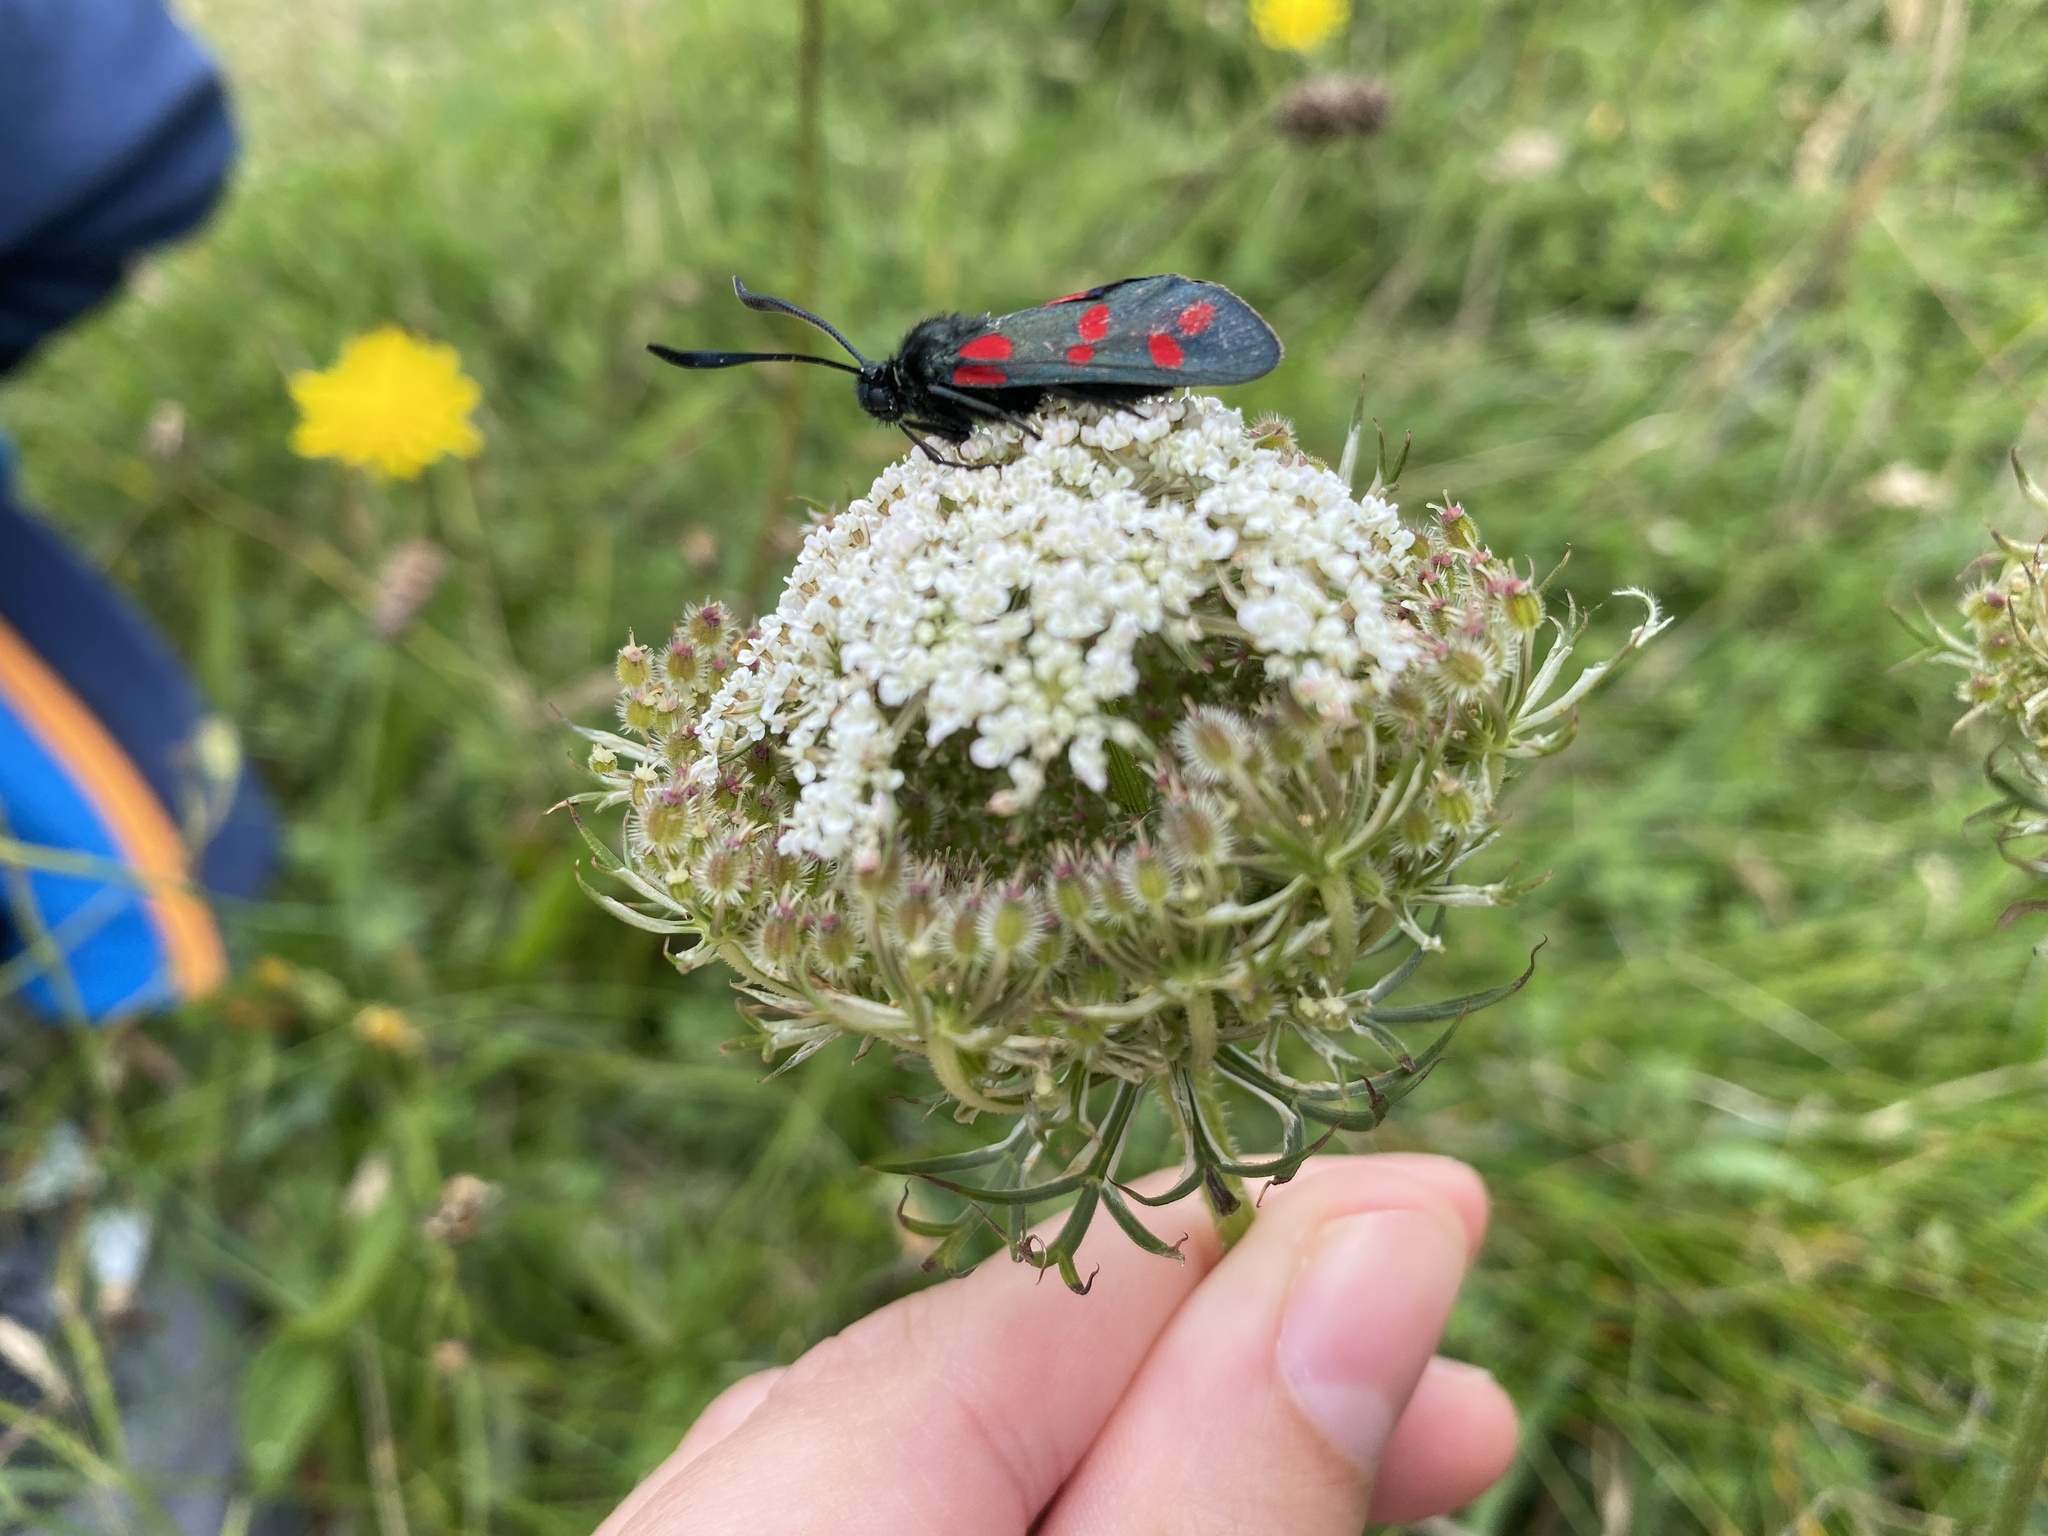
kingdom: Animalia
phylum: Arthropoda
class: Insecta
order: Lepidoptera
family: Zygaenidae
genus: Zygaena
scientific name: Zygaena filipendulae
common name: Six-spot burnet
